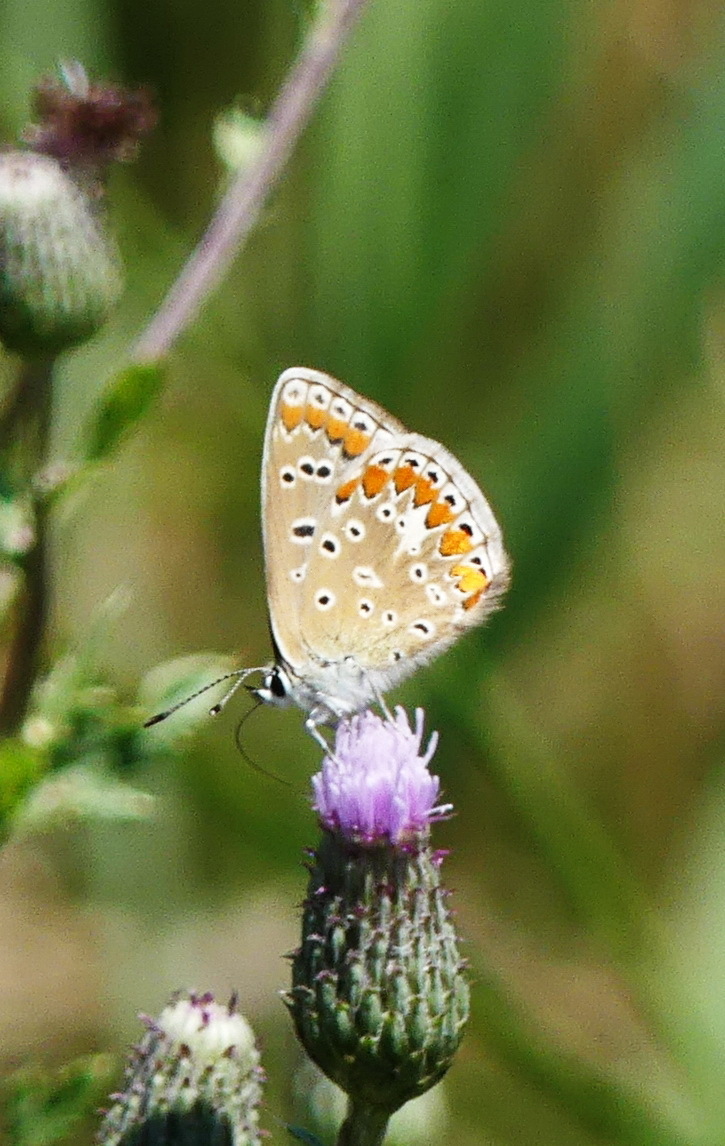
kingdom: Animalia
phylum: Arthropoda
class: Insecta
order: Lepidoptera
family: Lycaenidae
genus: Polyommatus
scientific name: Polyommatus icarus
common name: Common blue
